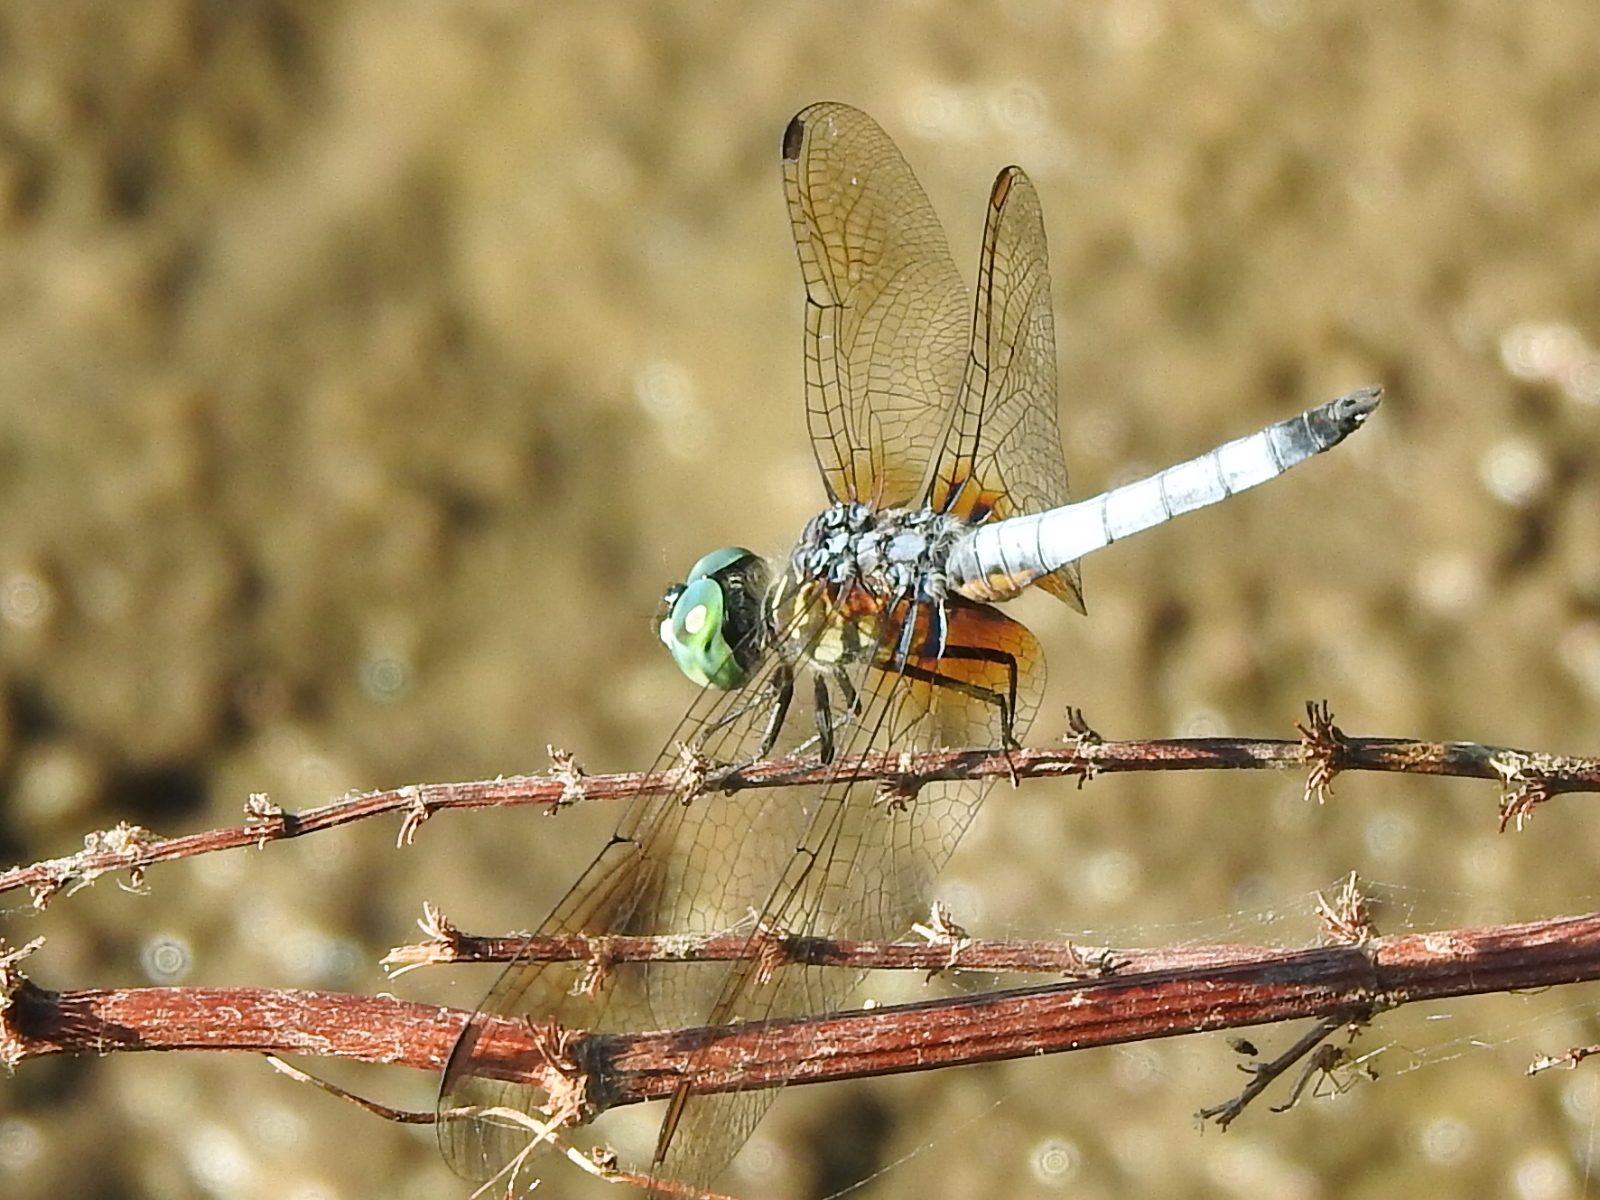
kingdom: Animalia
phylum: Arthropoda
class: Insecta
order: Odonata
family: Libellulidae
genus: Pachydiplax
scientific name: Pachydiplax longipennis
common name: Blue dasher
